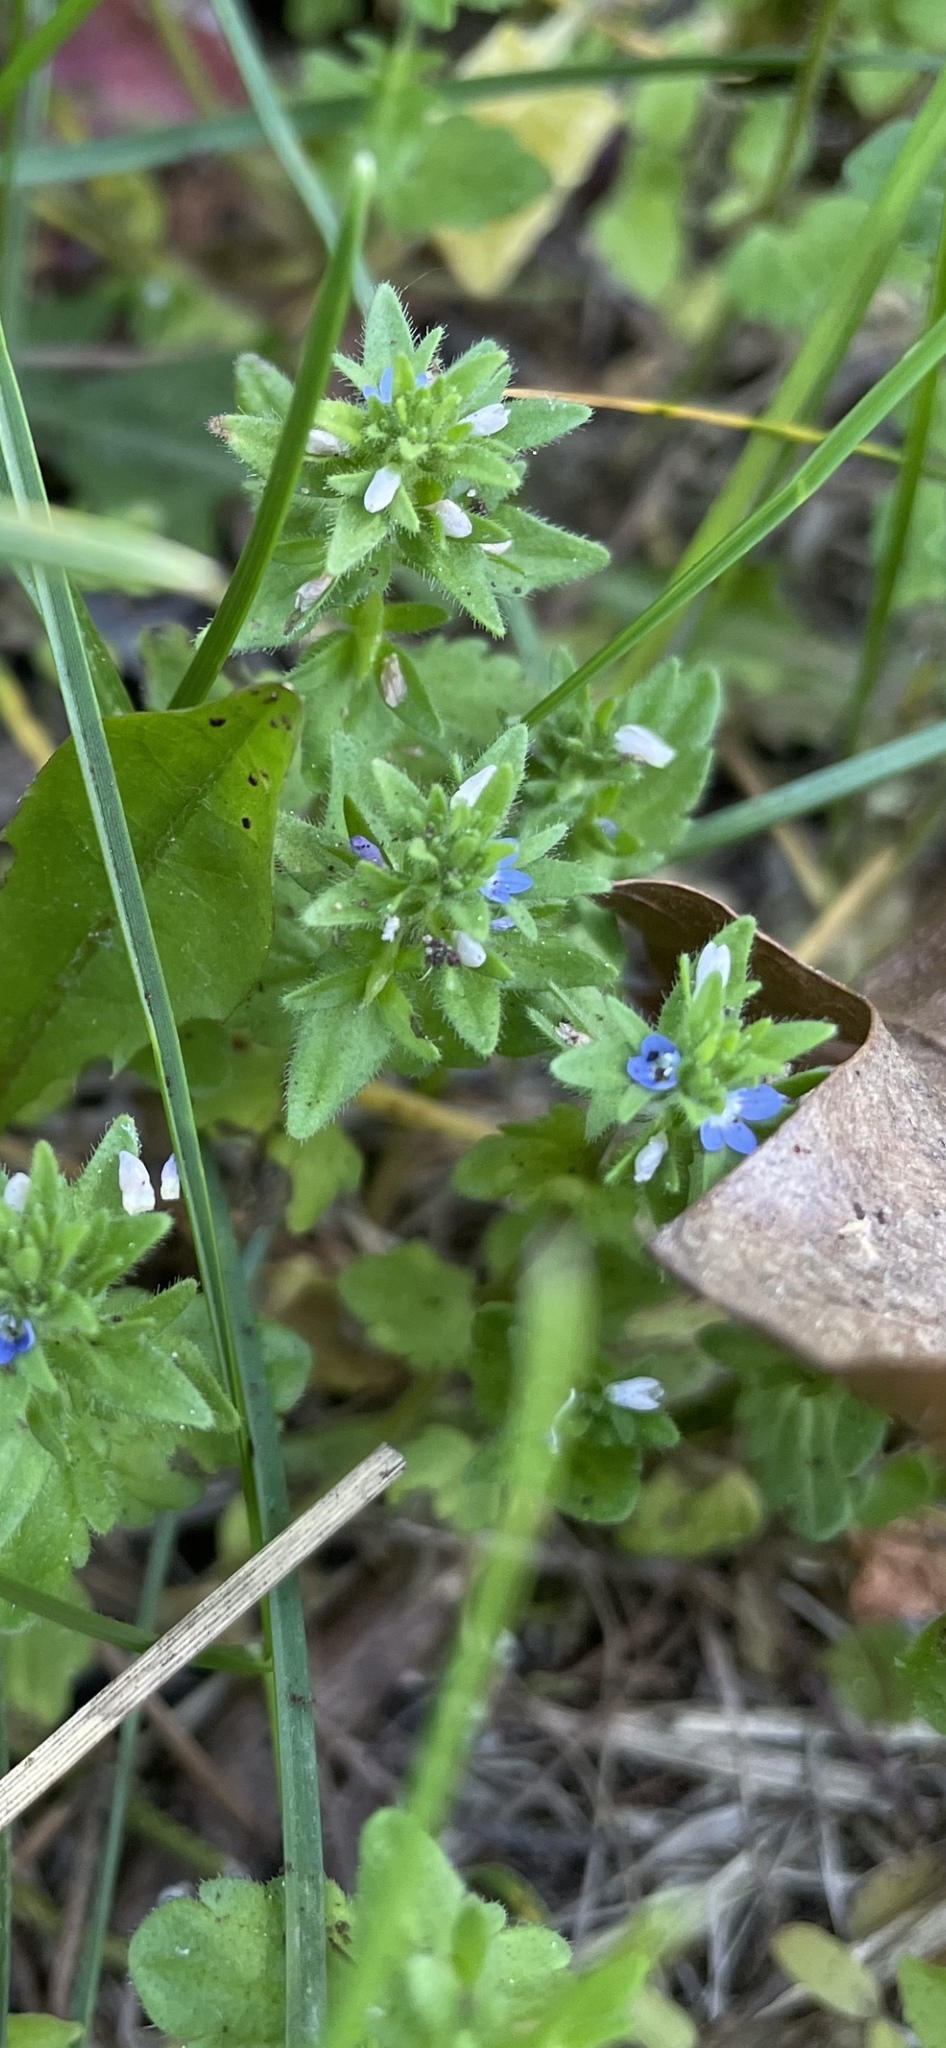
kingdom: Plantae
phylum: Tracheophyta
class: Magnoliopsida
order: Lamiales
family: Plantaginaceae
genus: Veronica
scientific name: Veronica arvensis
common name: Corn speedwell
